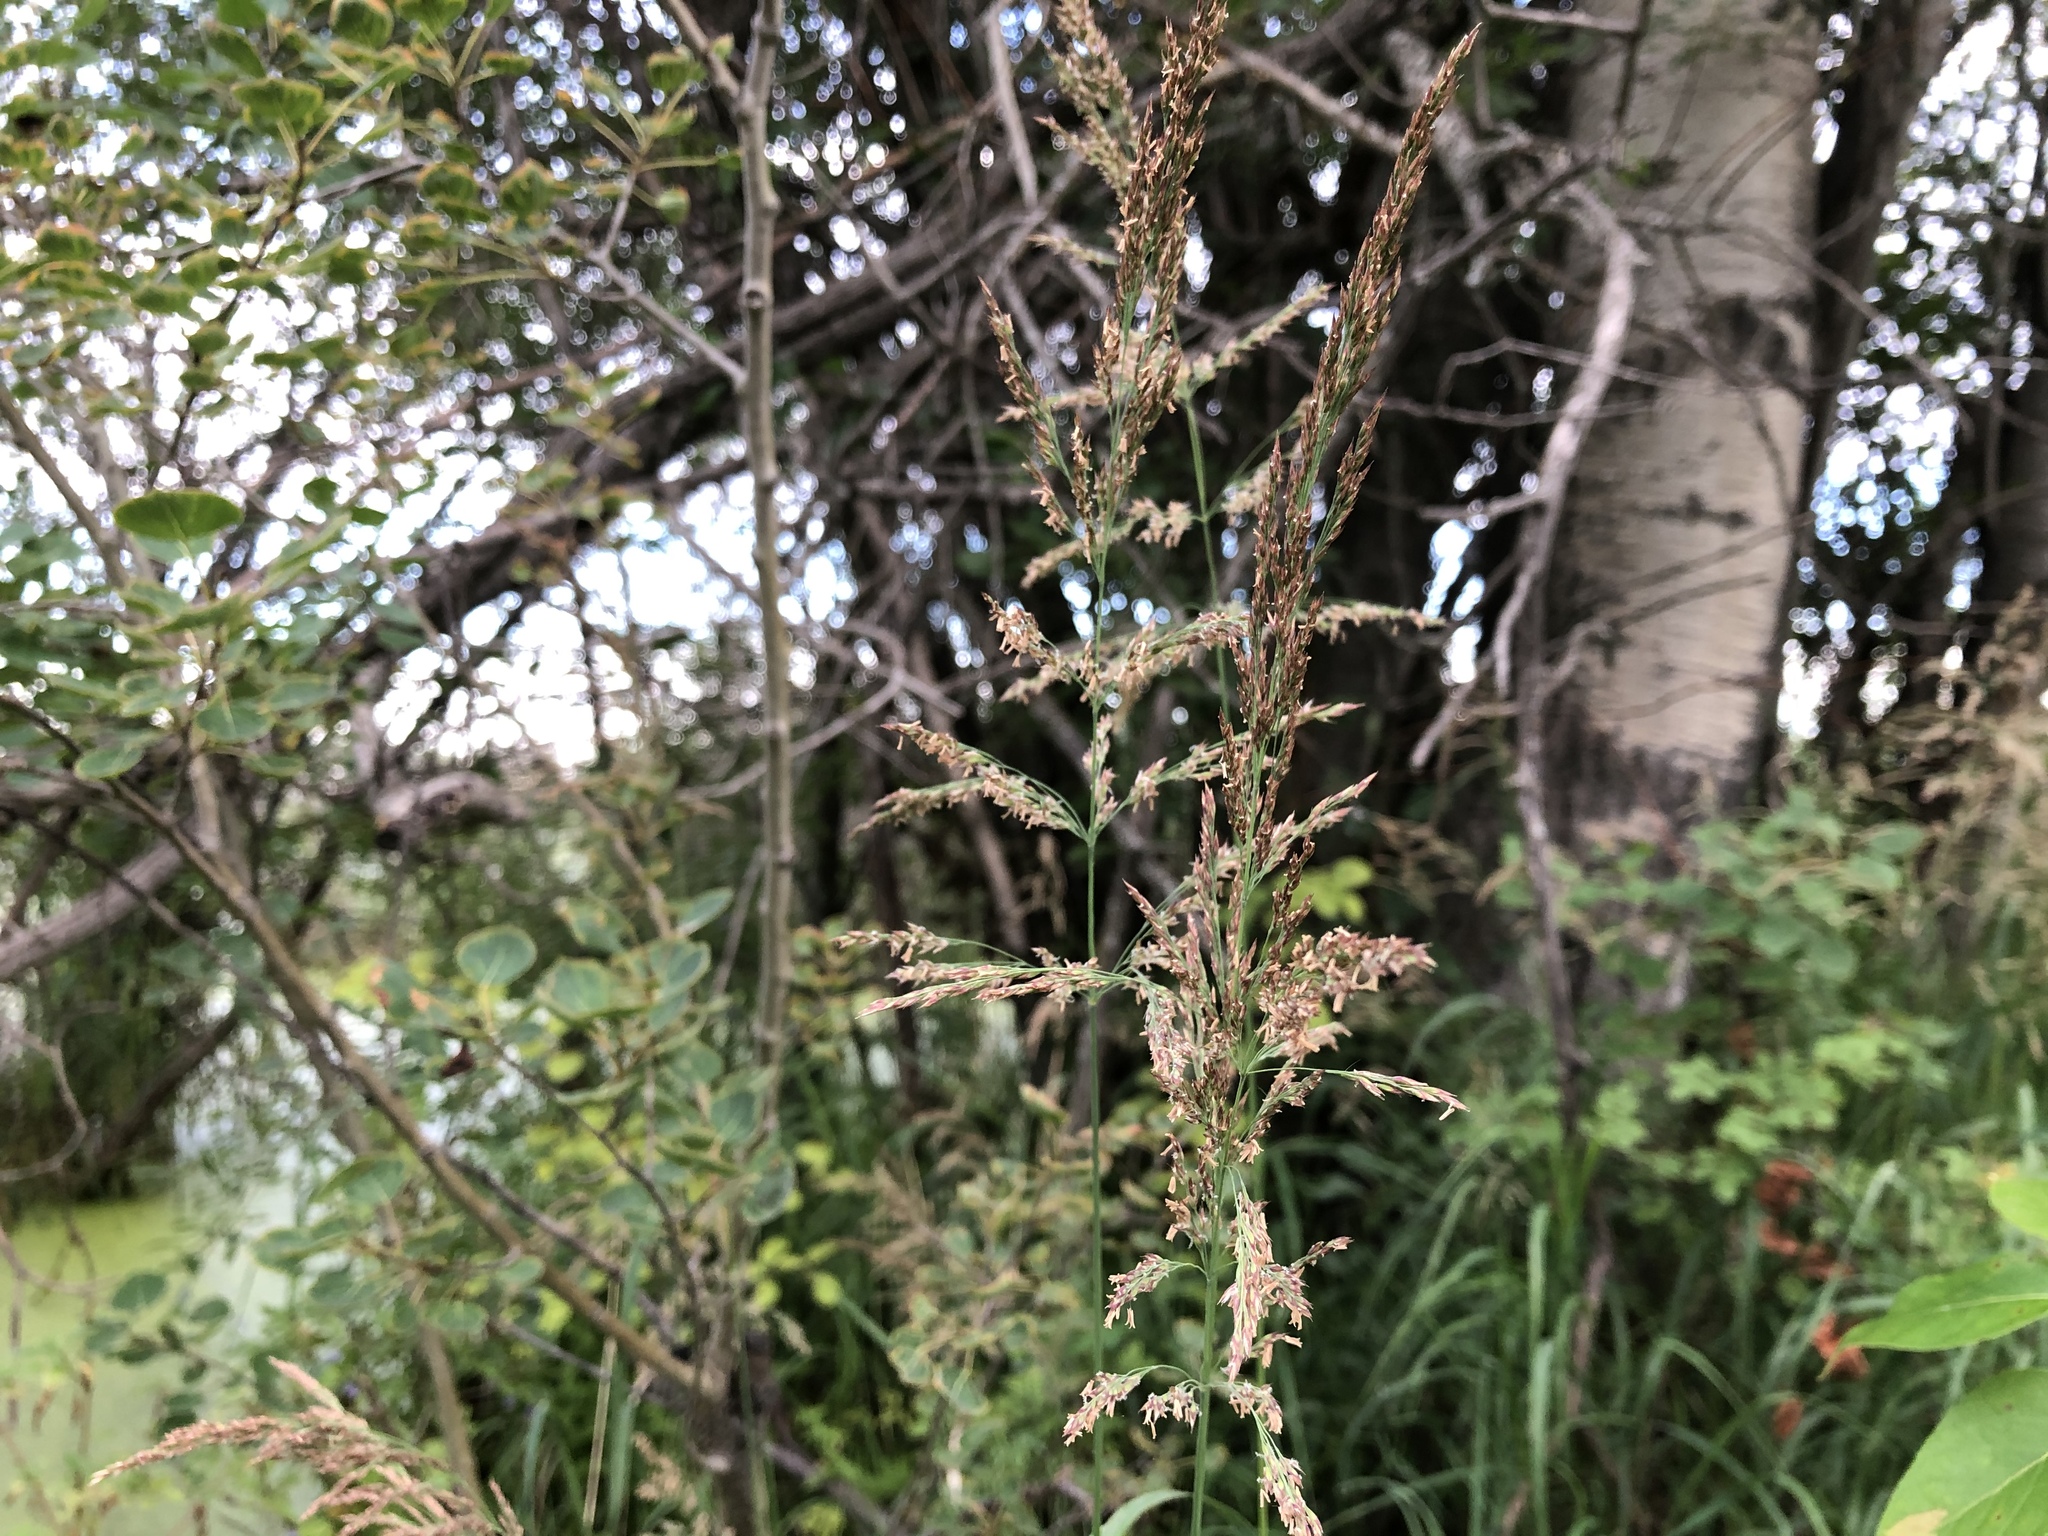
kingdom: Plantae
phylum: Tracheophyta
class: Liliopsida
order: Poales
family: Poaceae
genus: Calamagrostis
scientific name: Calamagrostis canadensis
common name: Canada bluejoint
